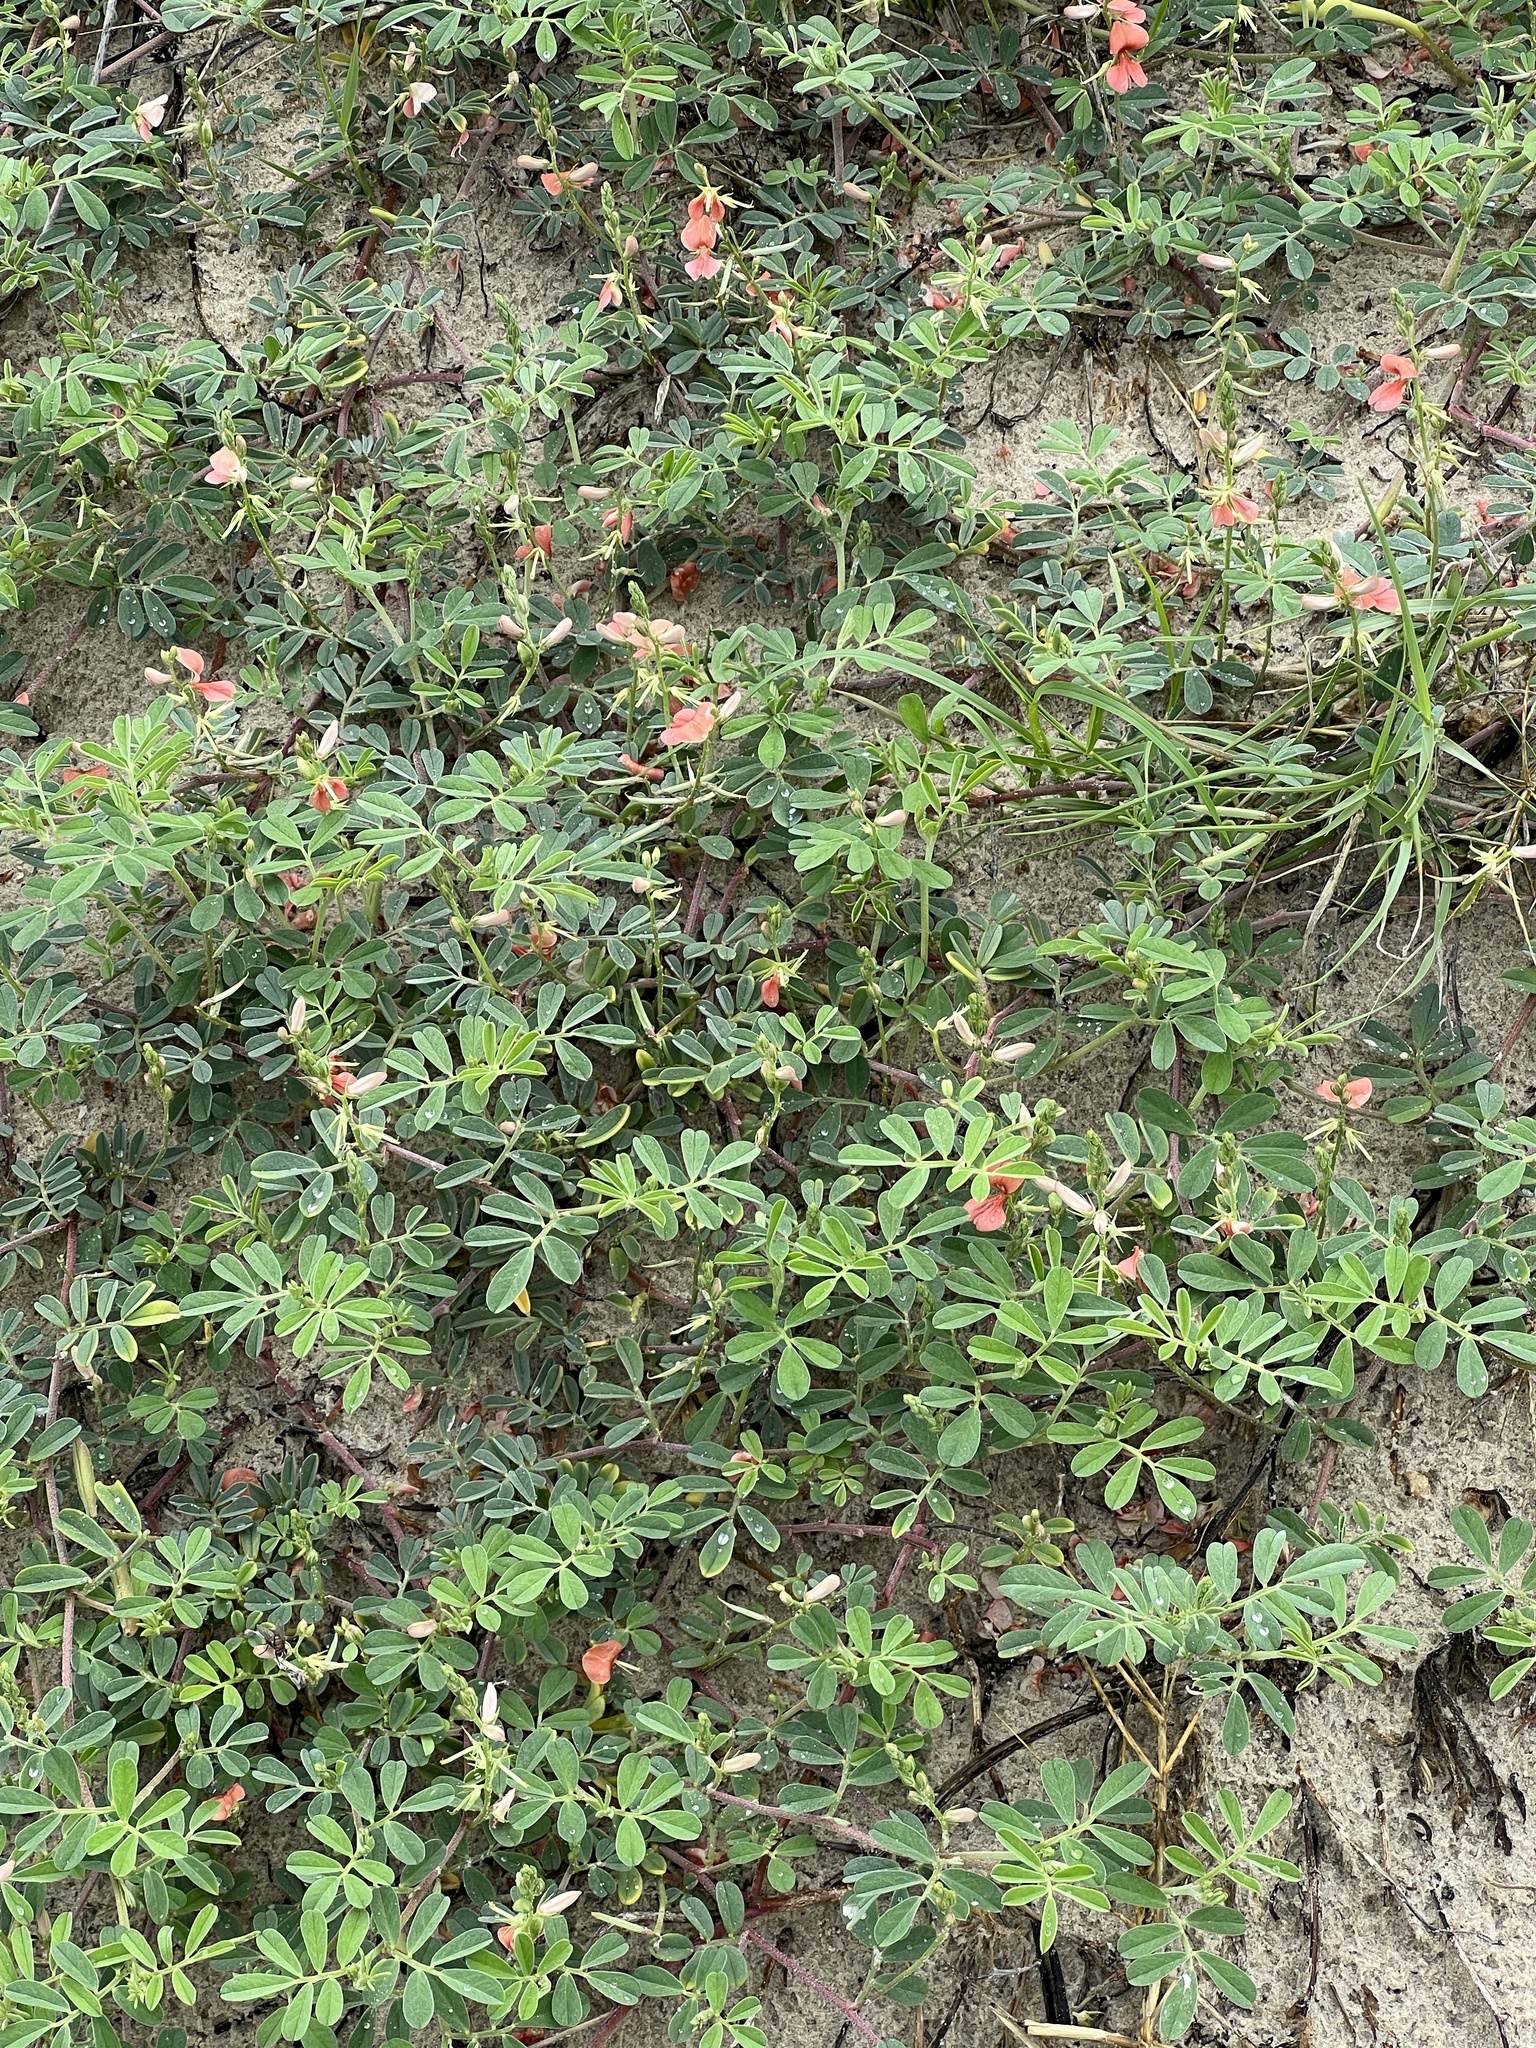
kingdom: Plantae
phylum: Tracheophyta
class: Magnoliopsida
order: Fabales
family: Fabaceae
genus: Indigofera
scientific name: Indigofera miniata
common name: Coast indigo
